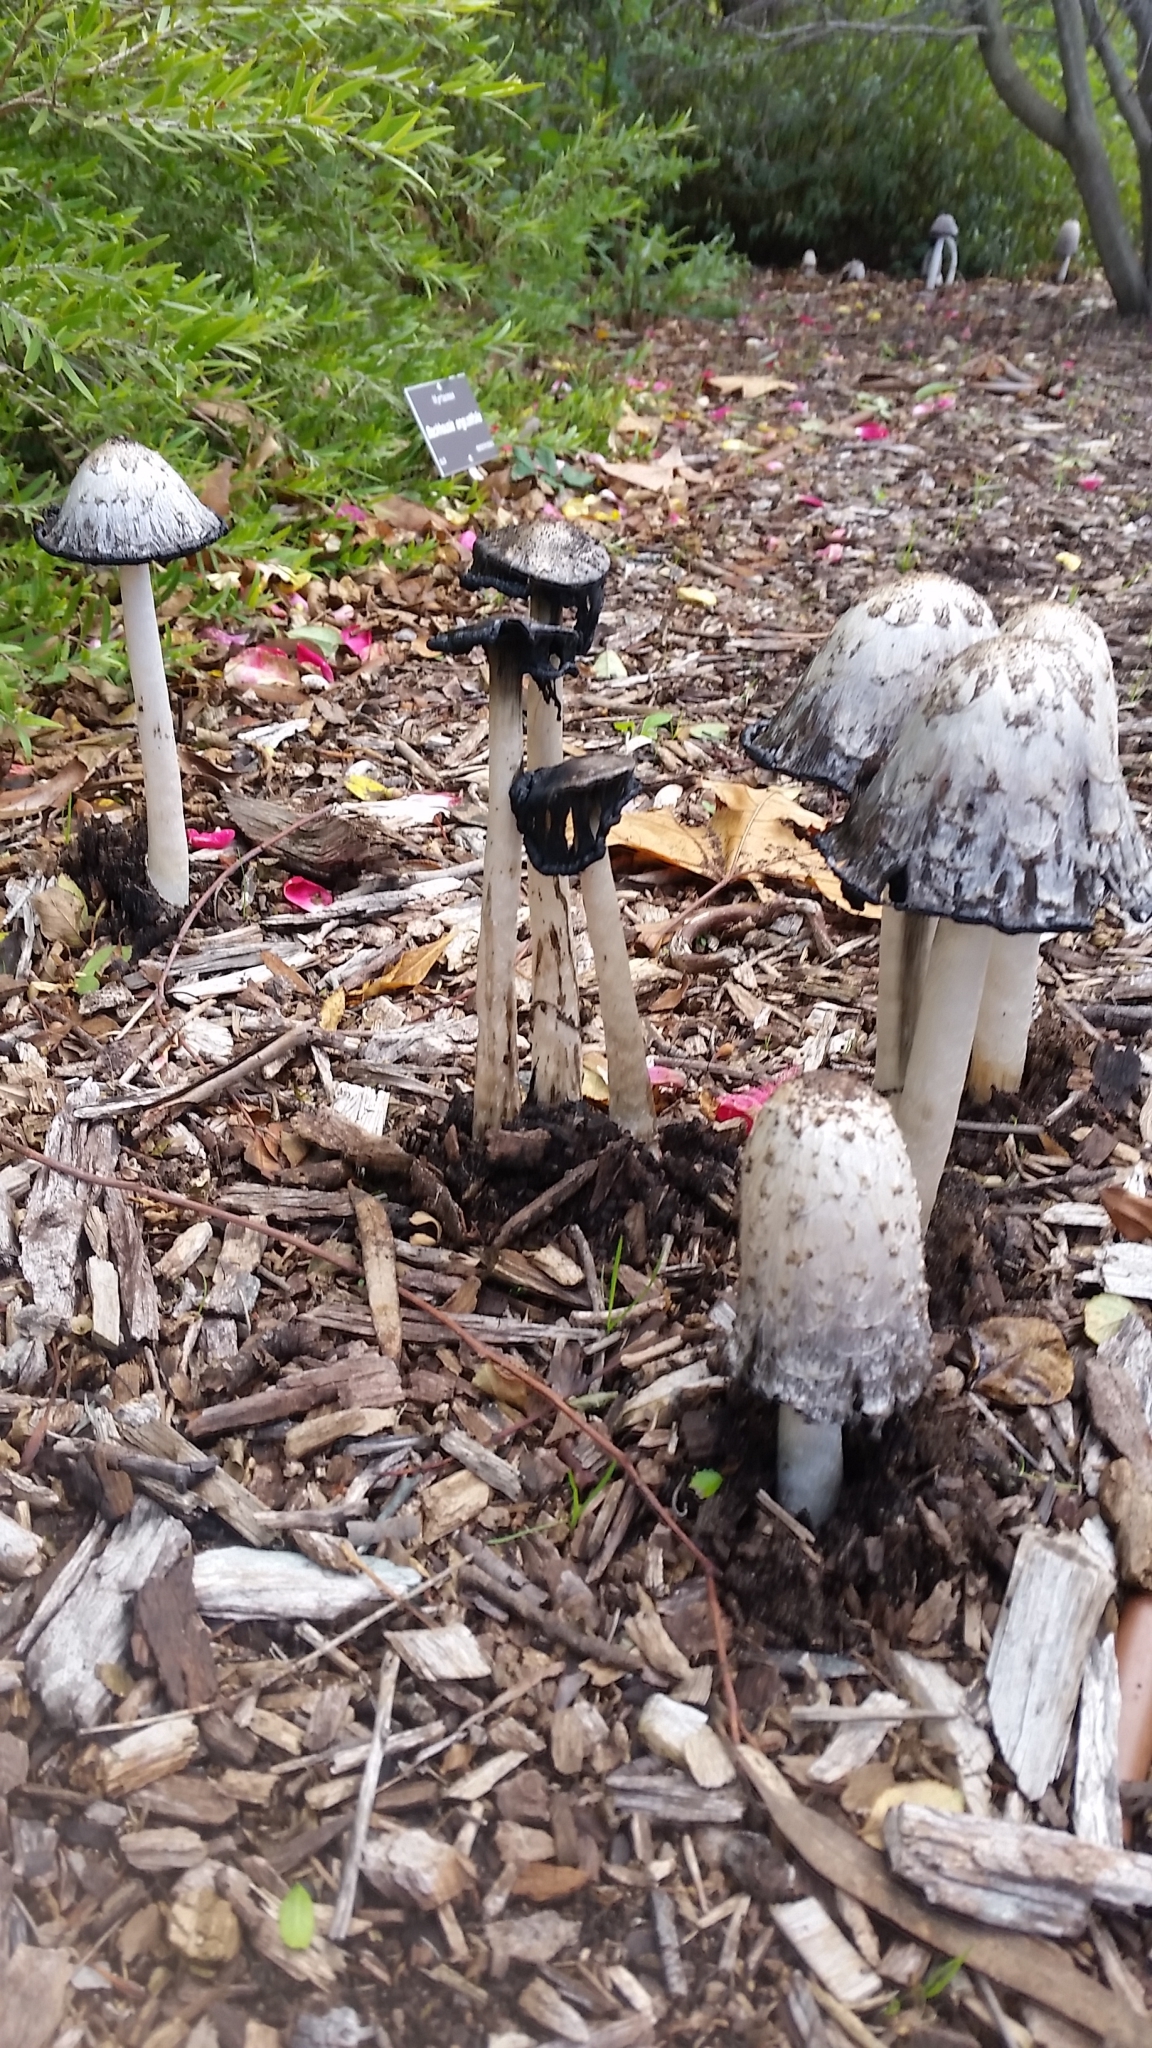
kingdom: Fungi
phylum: Basidiomycota
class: Agaricomycetes
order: Agaricales
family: Agaricaceae
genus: Coprinus
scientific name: Coprinus comatus
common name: Lawyer's wig
